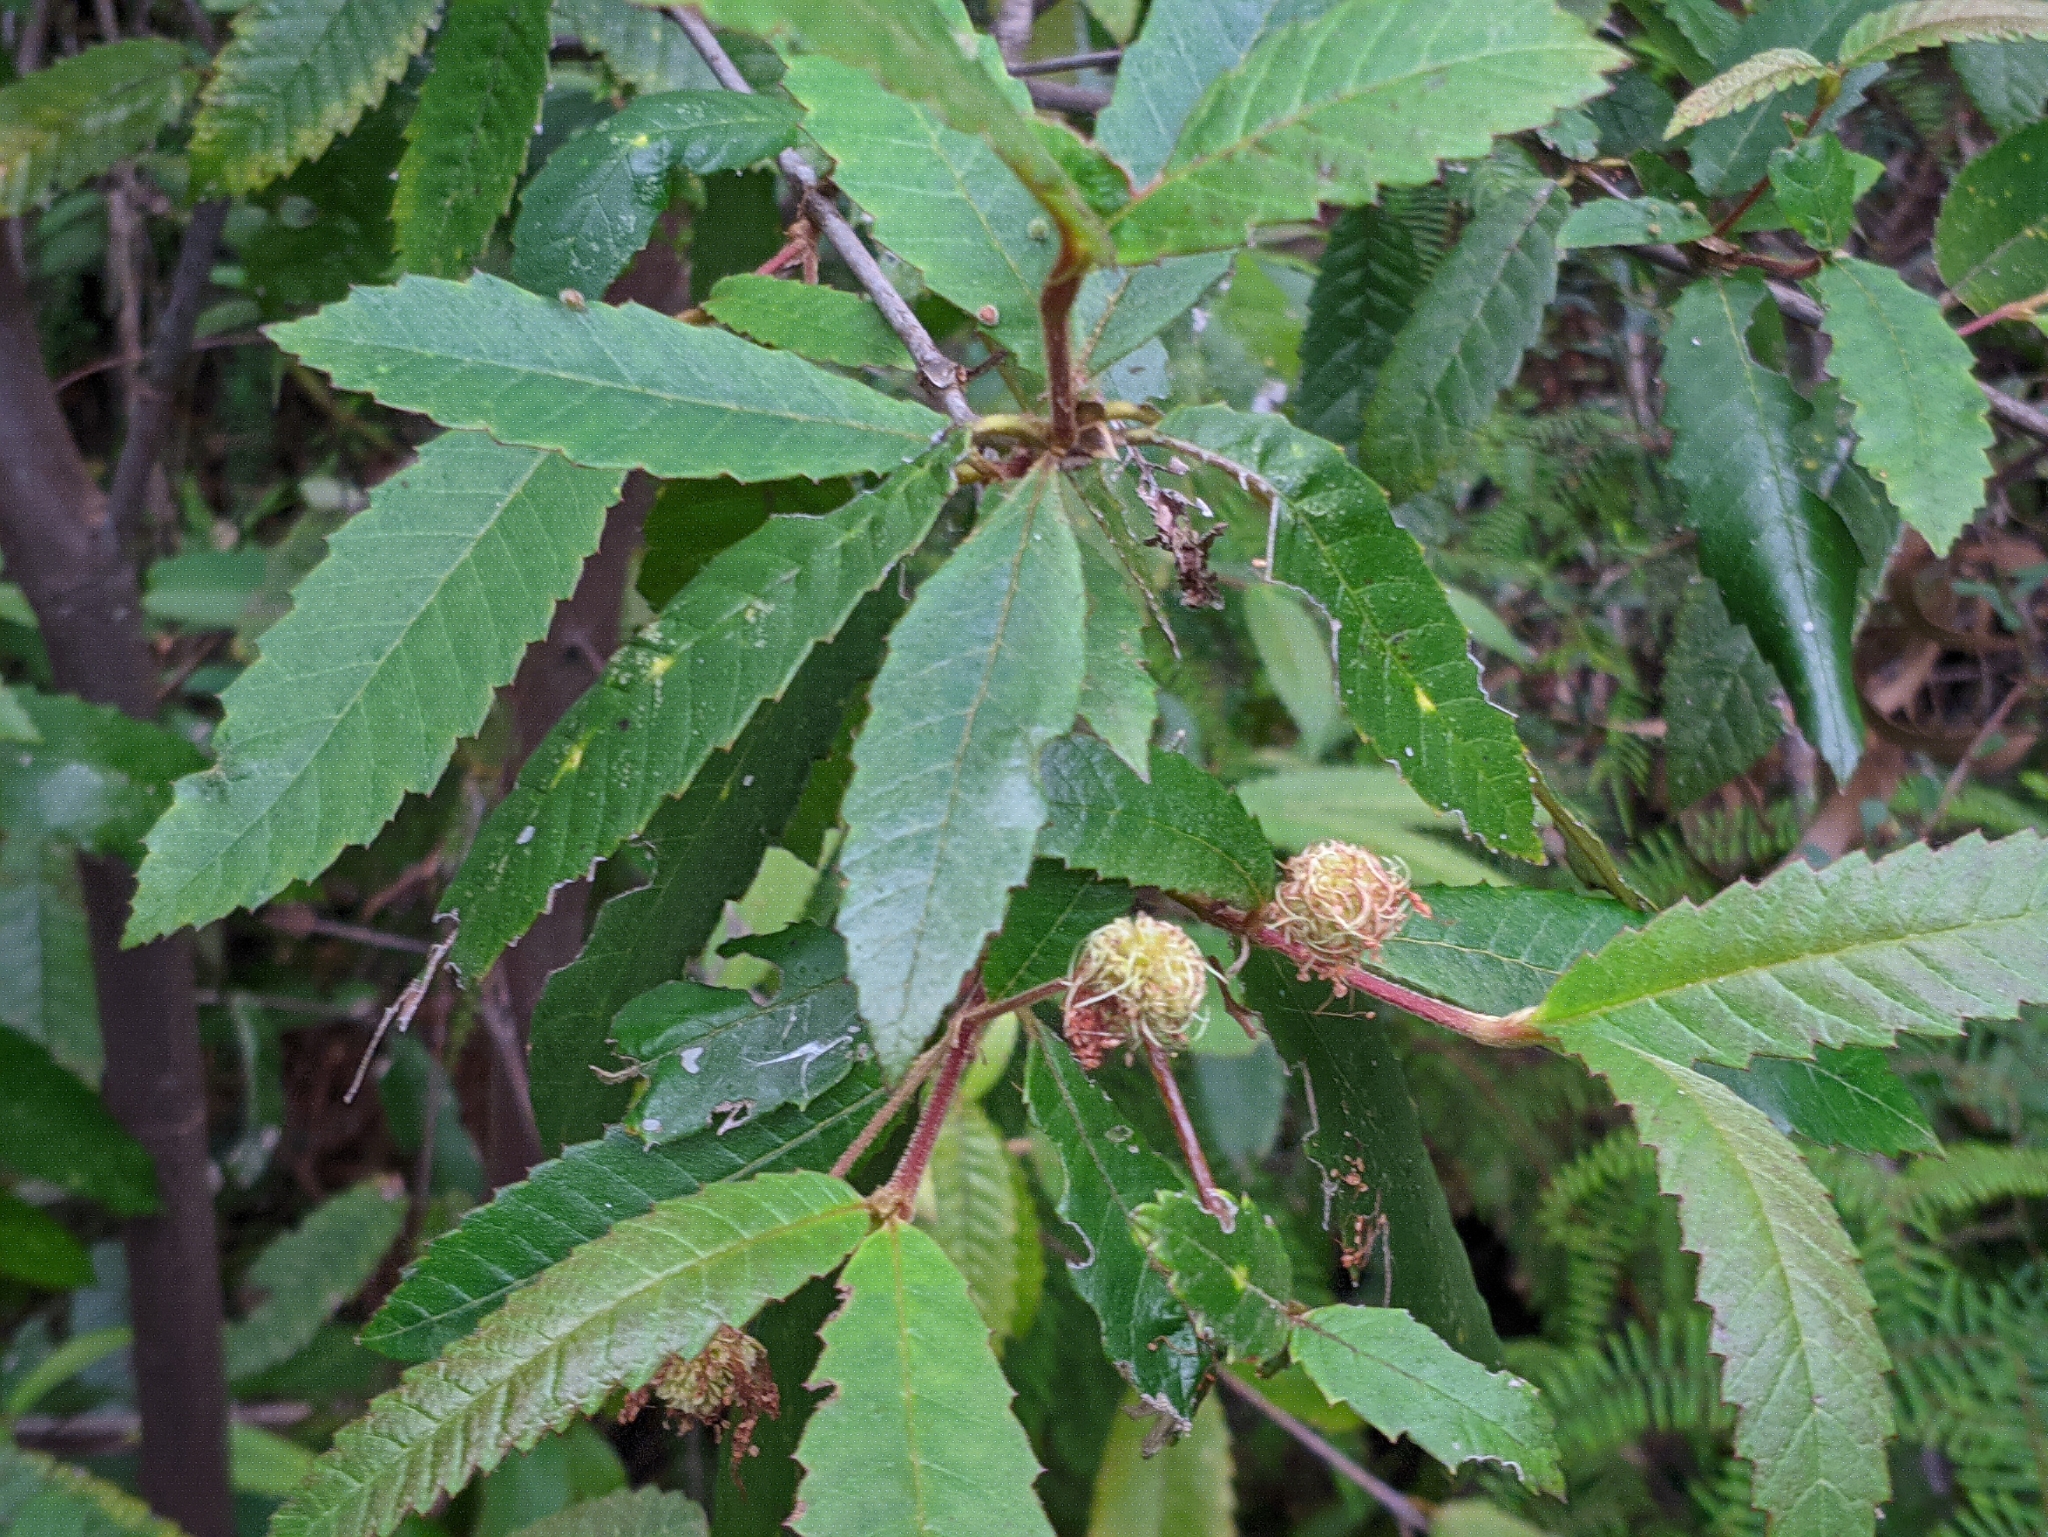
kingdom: Plantae
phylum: Tracheophyta
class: Magnoliopsida
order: Oxalidales
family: Cunoniaceae
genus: Callicoma
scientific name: Callicoma serratifolia
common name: Black wattle
